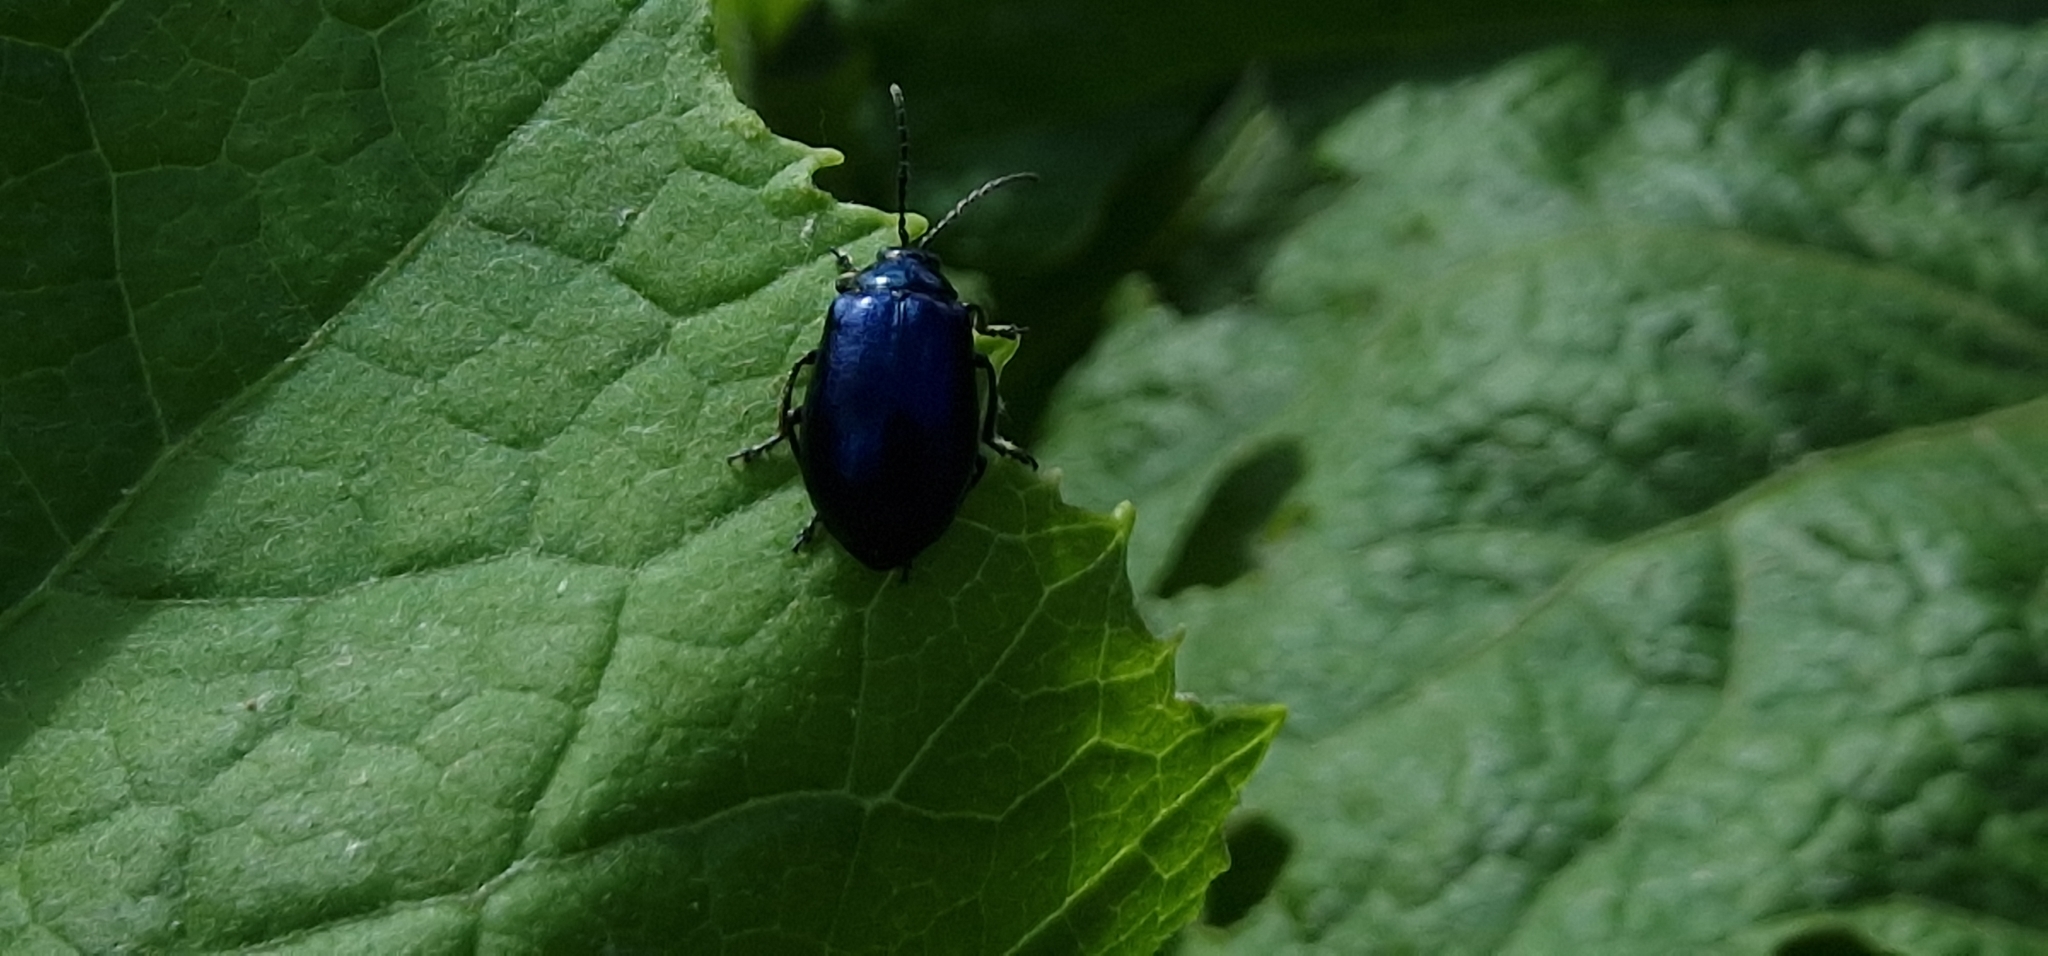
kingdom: Animalia
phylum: Arthropoda
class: Insecta
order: Coleoptera
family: Chrysomelidae
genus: Agelastica
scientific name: Agelastica alni
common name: Alder leaf beetle
